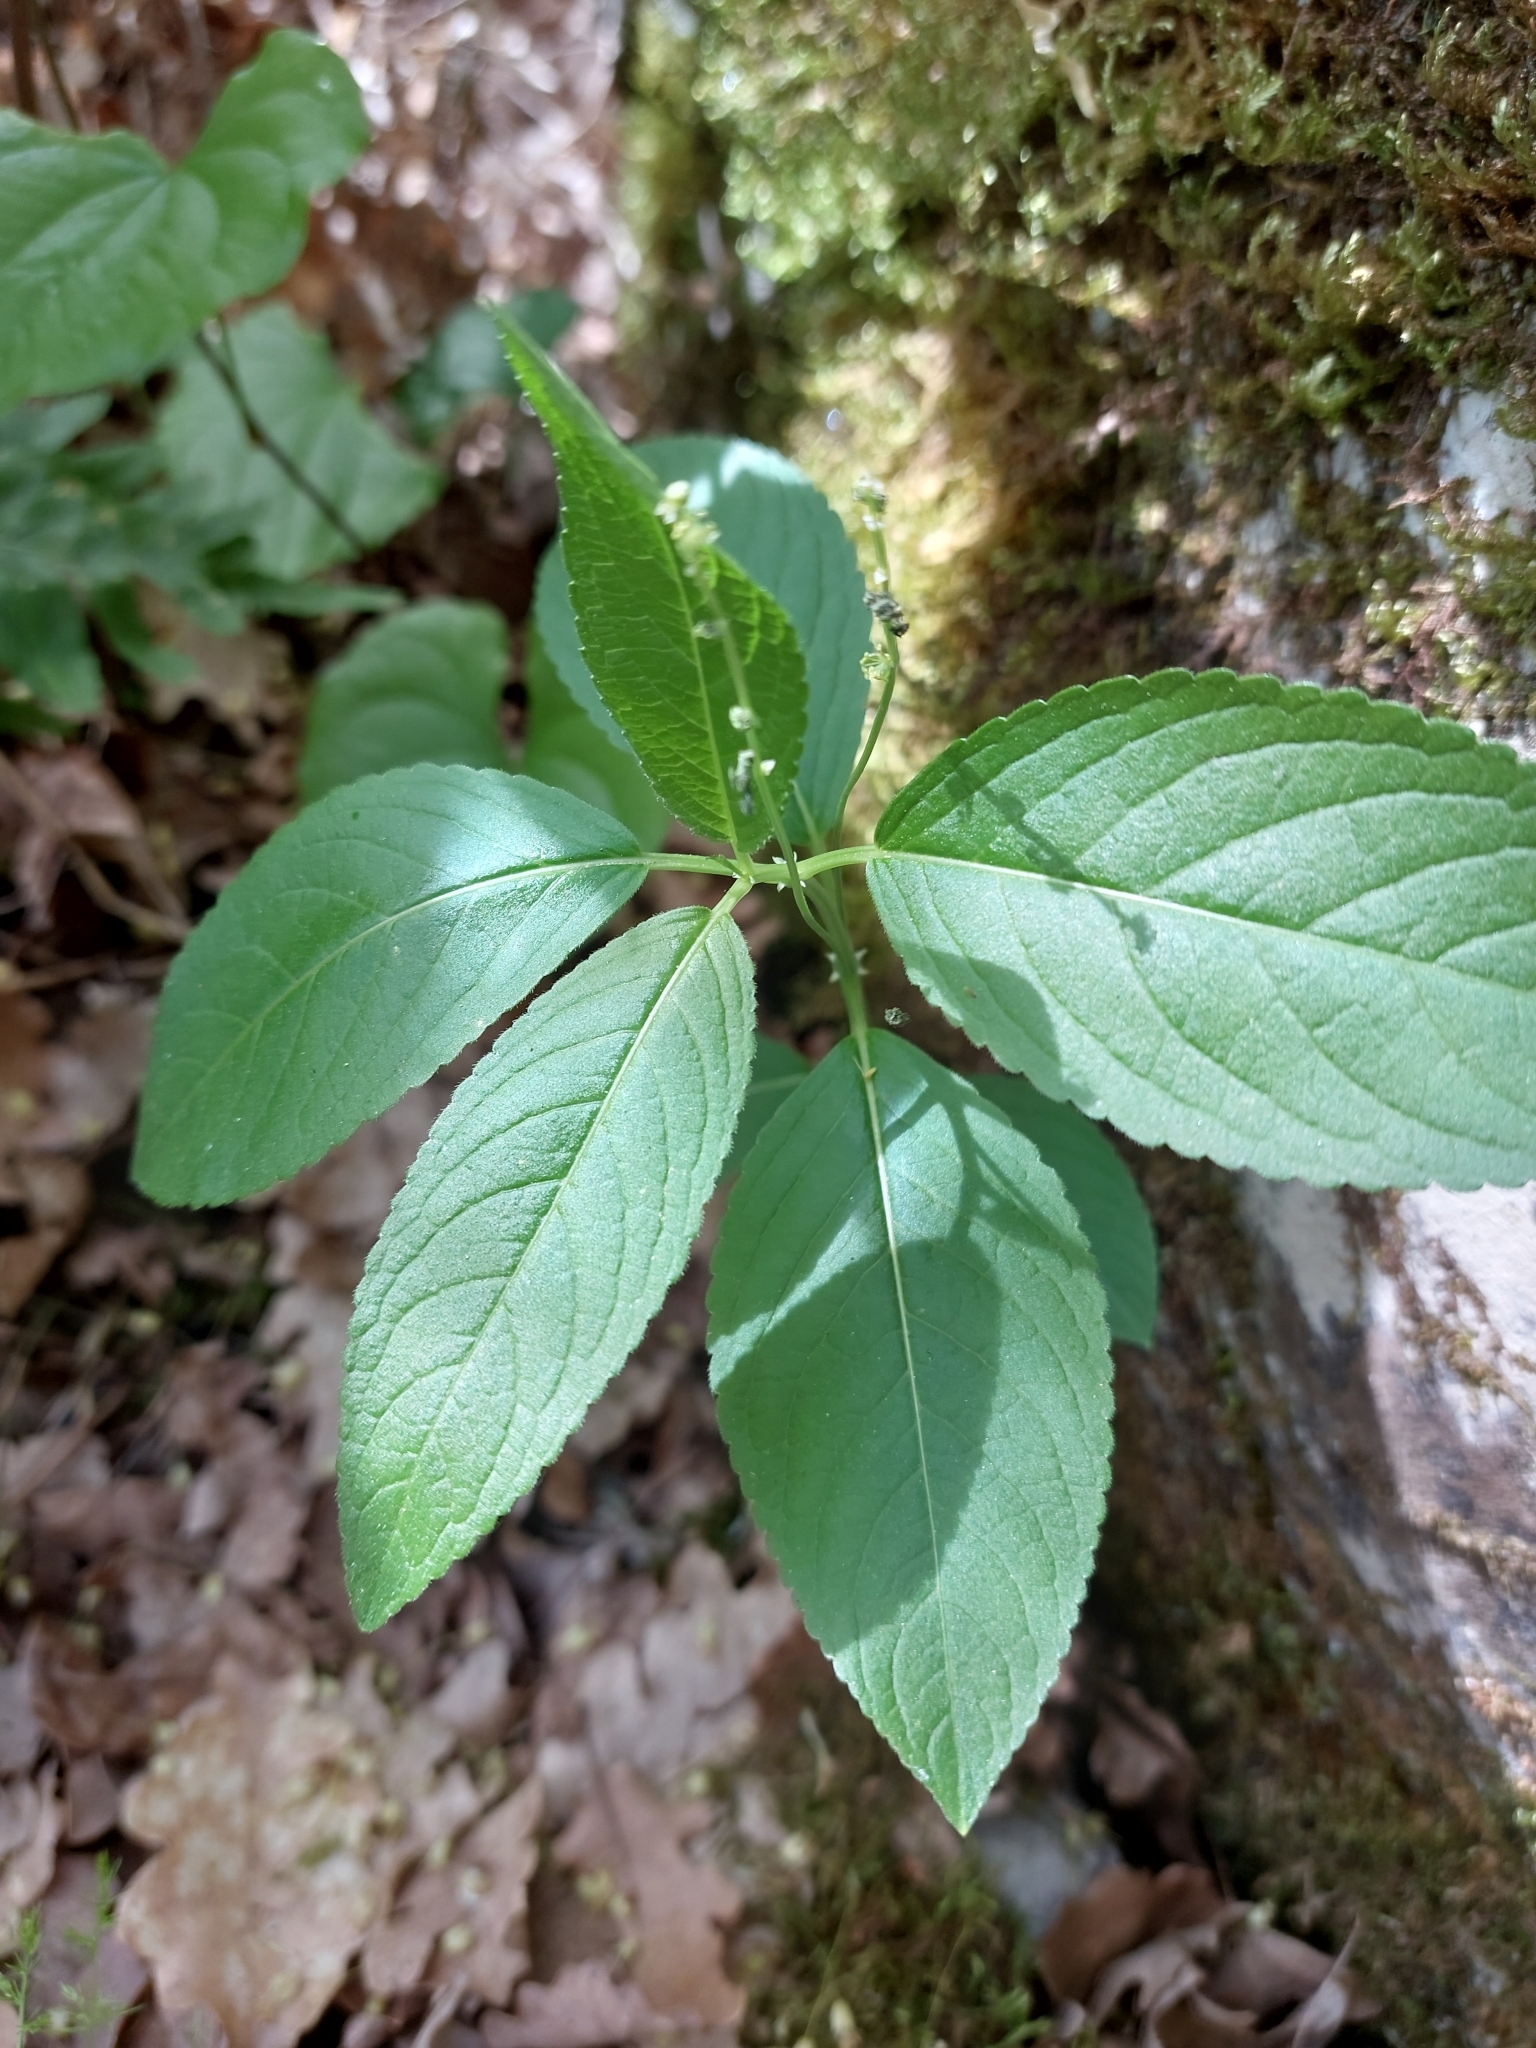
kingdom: Plantae
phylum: Tracheophyta
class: Magnoliopsida
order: Malpighiales
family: Euphorbiaceae
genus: Mercurialis
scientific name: Mercurialis perennis
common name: Dog mercury
